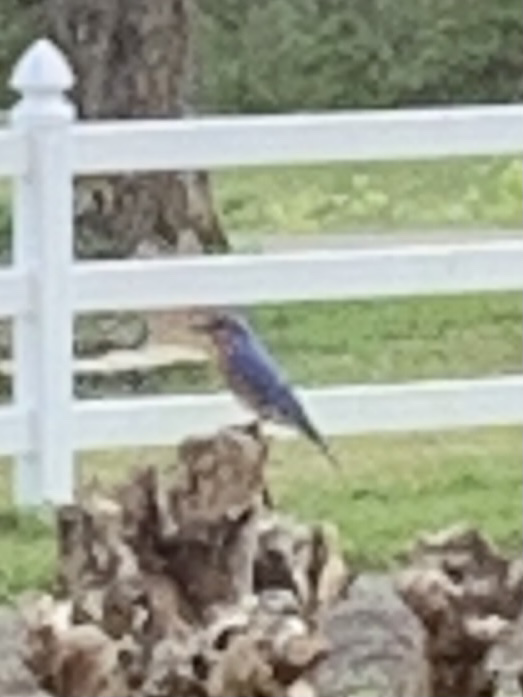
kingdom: Animalia
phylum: Chordata
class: Aves
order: Passeriformes
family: Turdidae
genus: Sialia
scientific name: Sialia sialis
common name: Eastern bluebird
